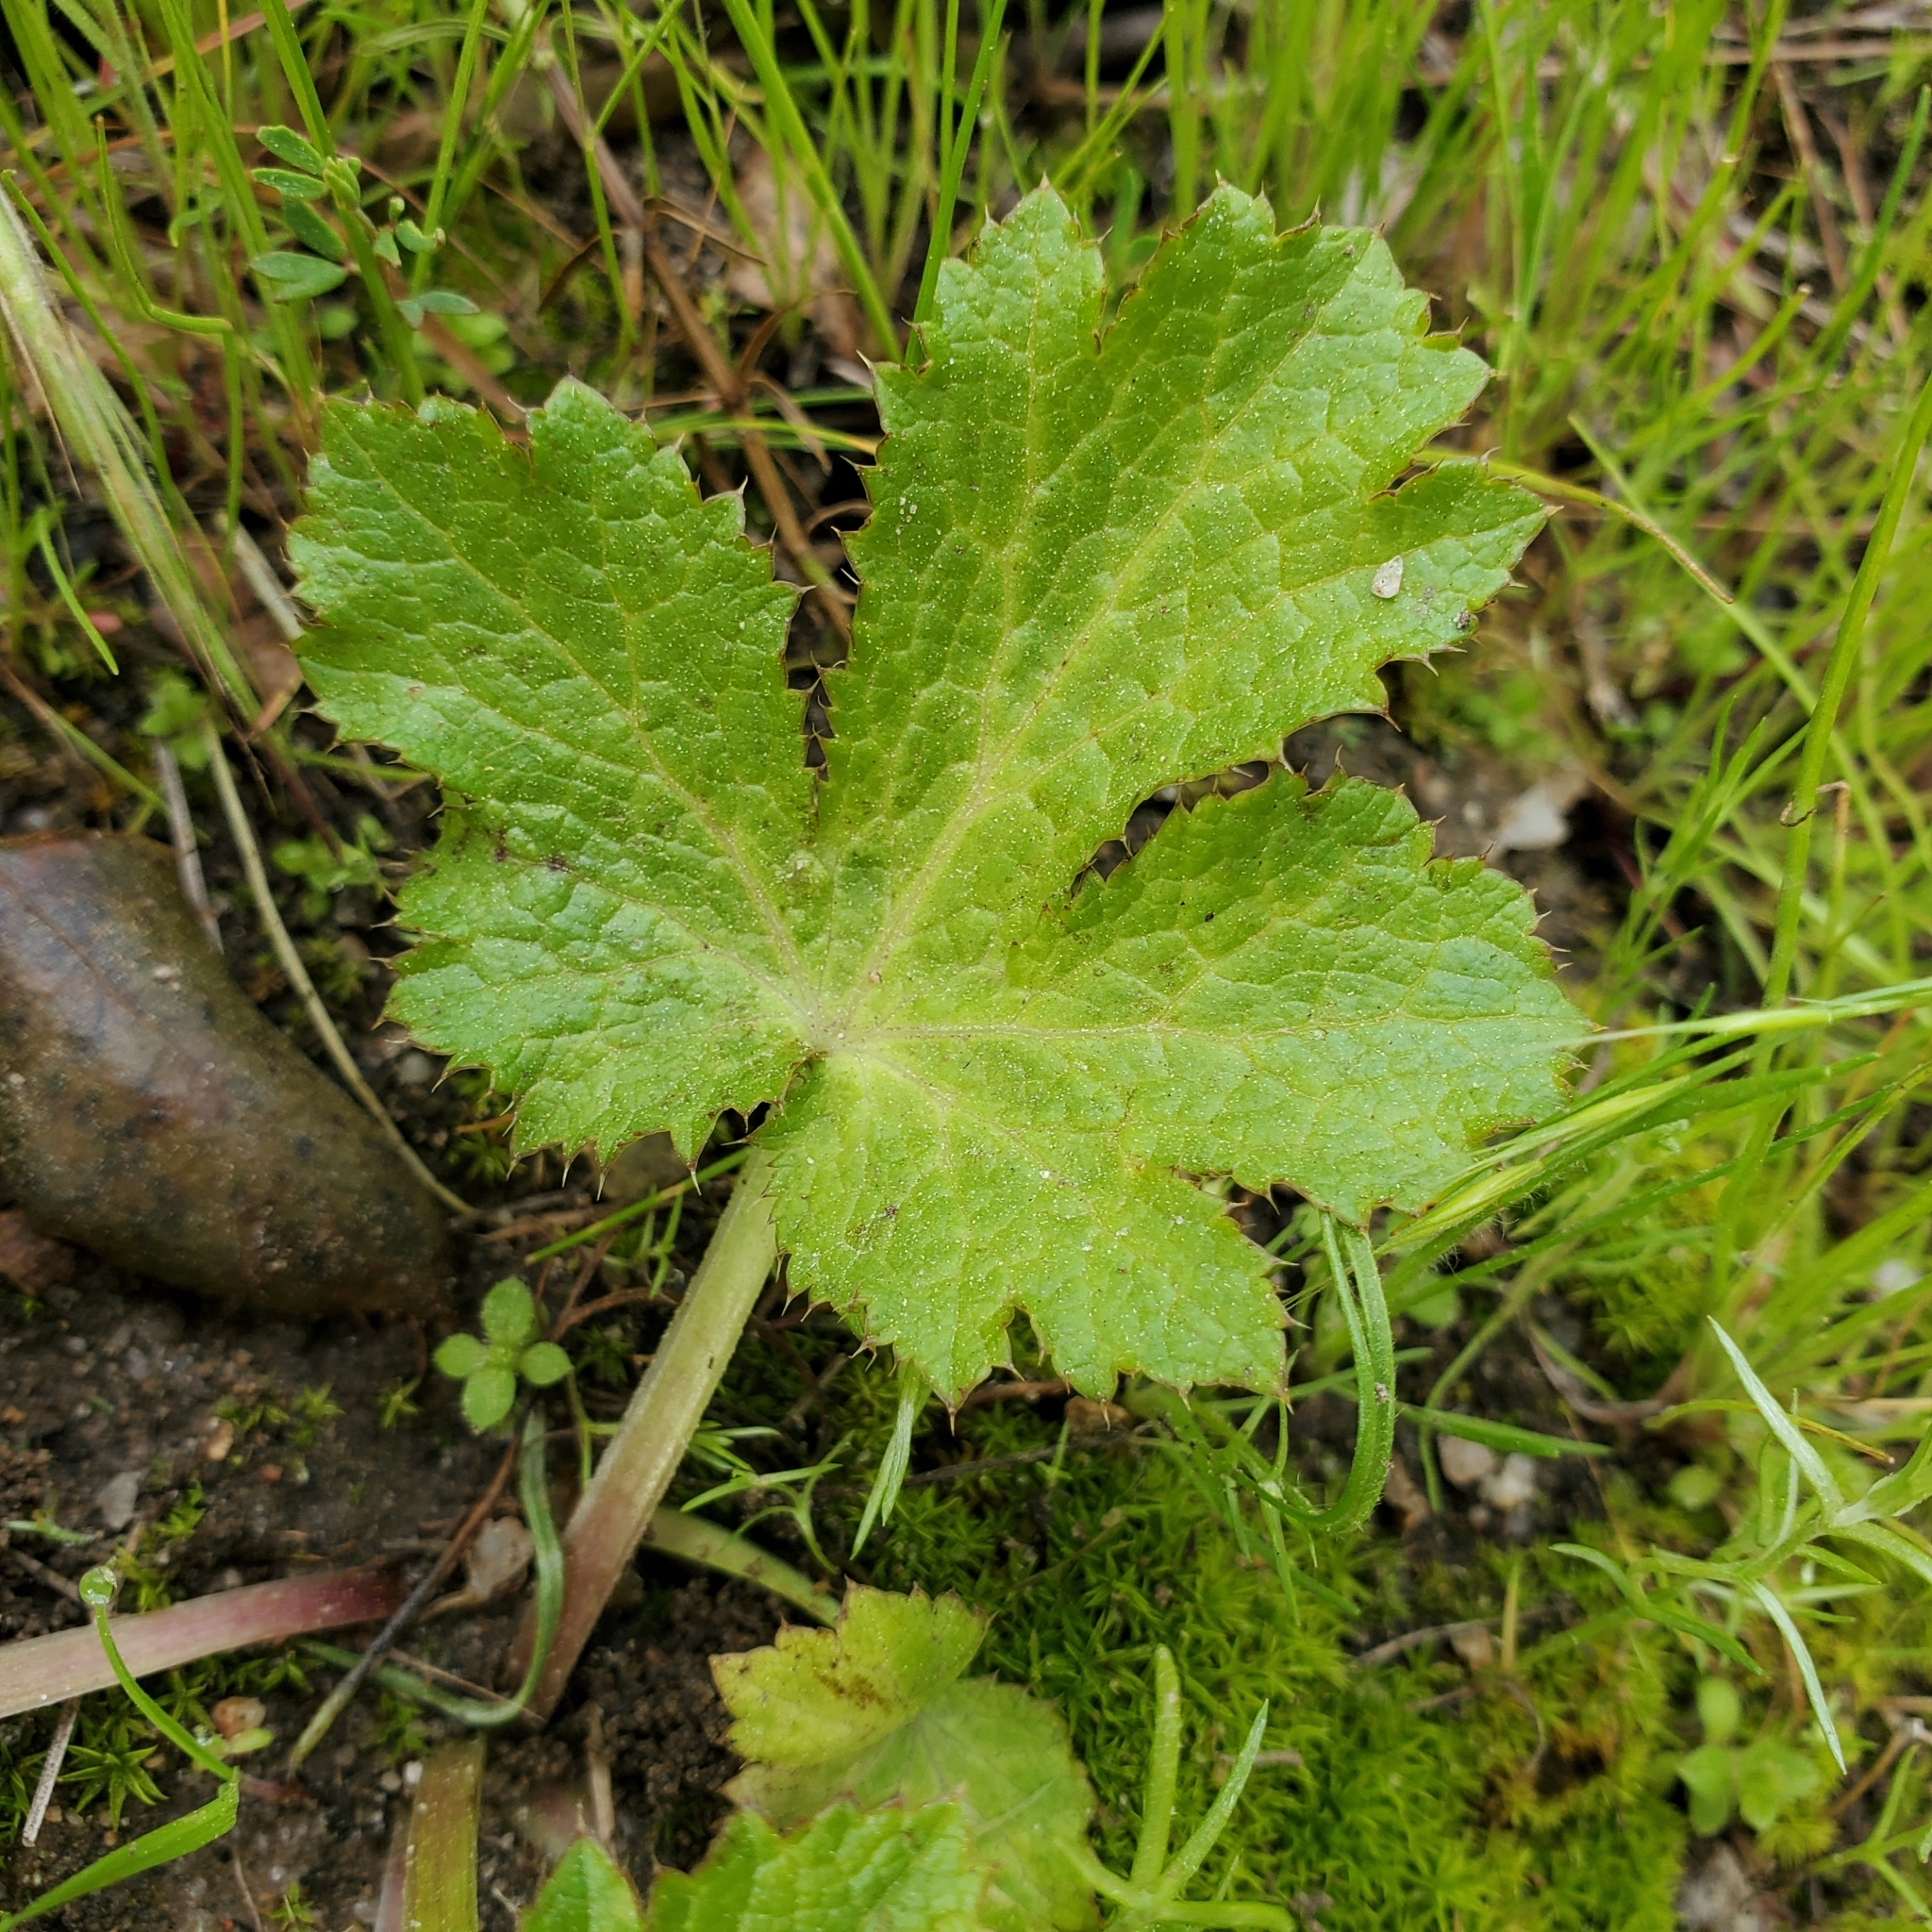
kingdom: Plantae
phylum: Tracheophyta
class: Magnoliopsida
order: Apiales
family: Apiaceae
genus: Sanicula
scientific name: Sanicula crassicaulis
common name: Western snakeroot
